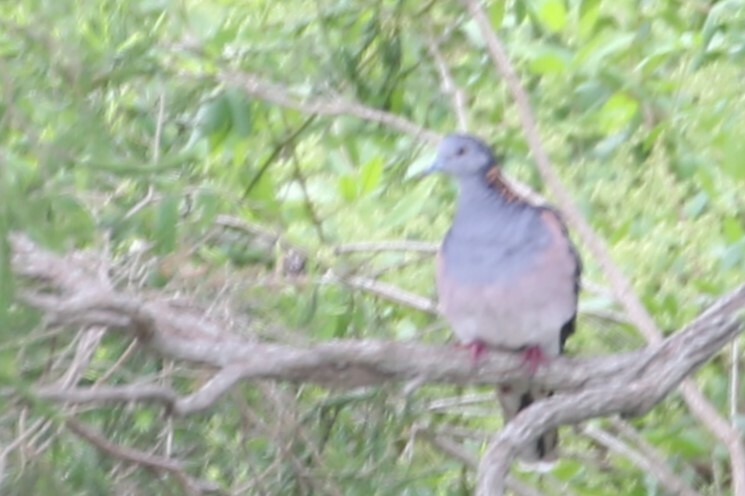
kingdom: Animalia
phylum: Chordata
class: Aves
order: Columbiformes
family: Columbidae
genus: Geopelia
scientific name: Geopelia humeralis
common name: Bar-shouldered dove
